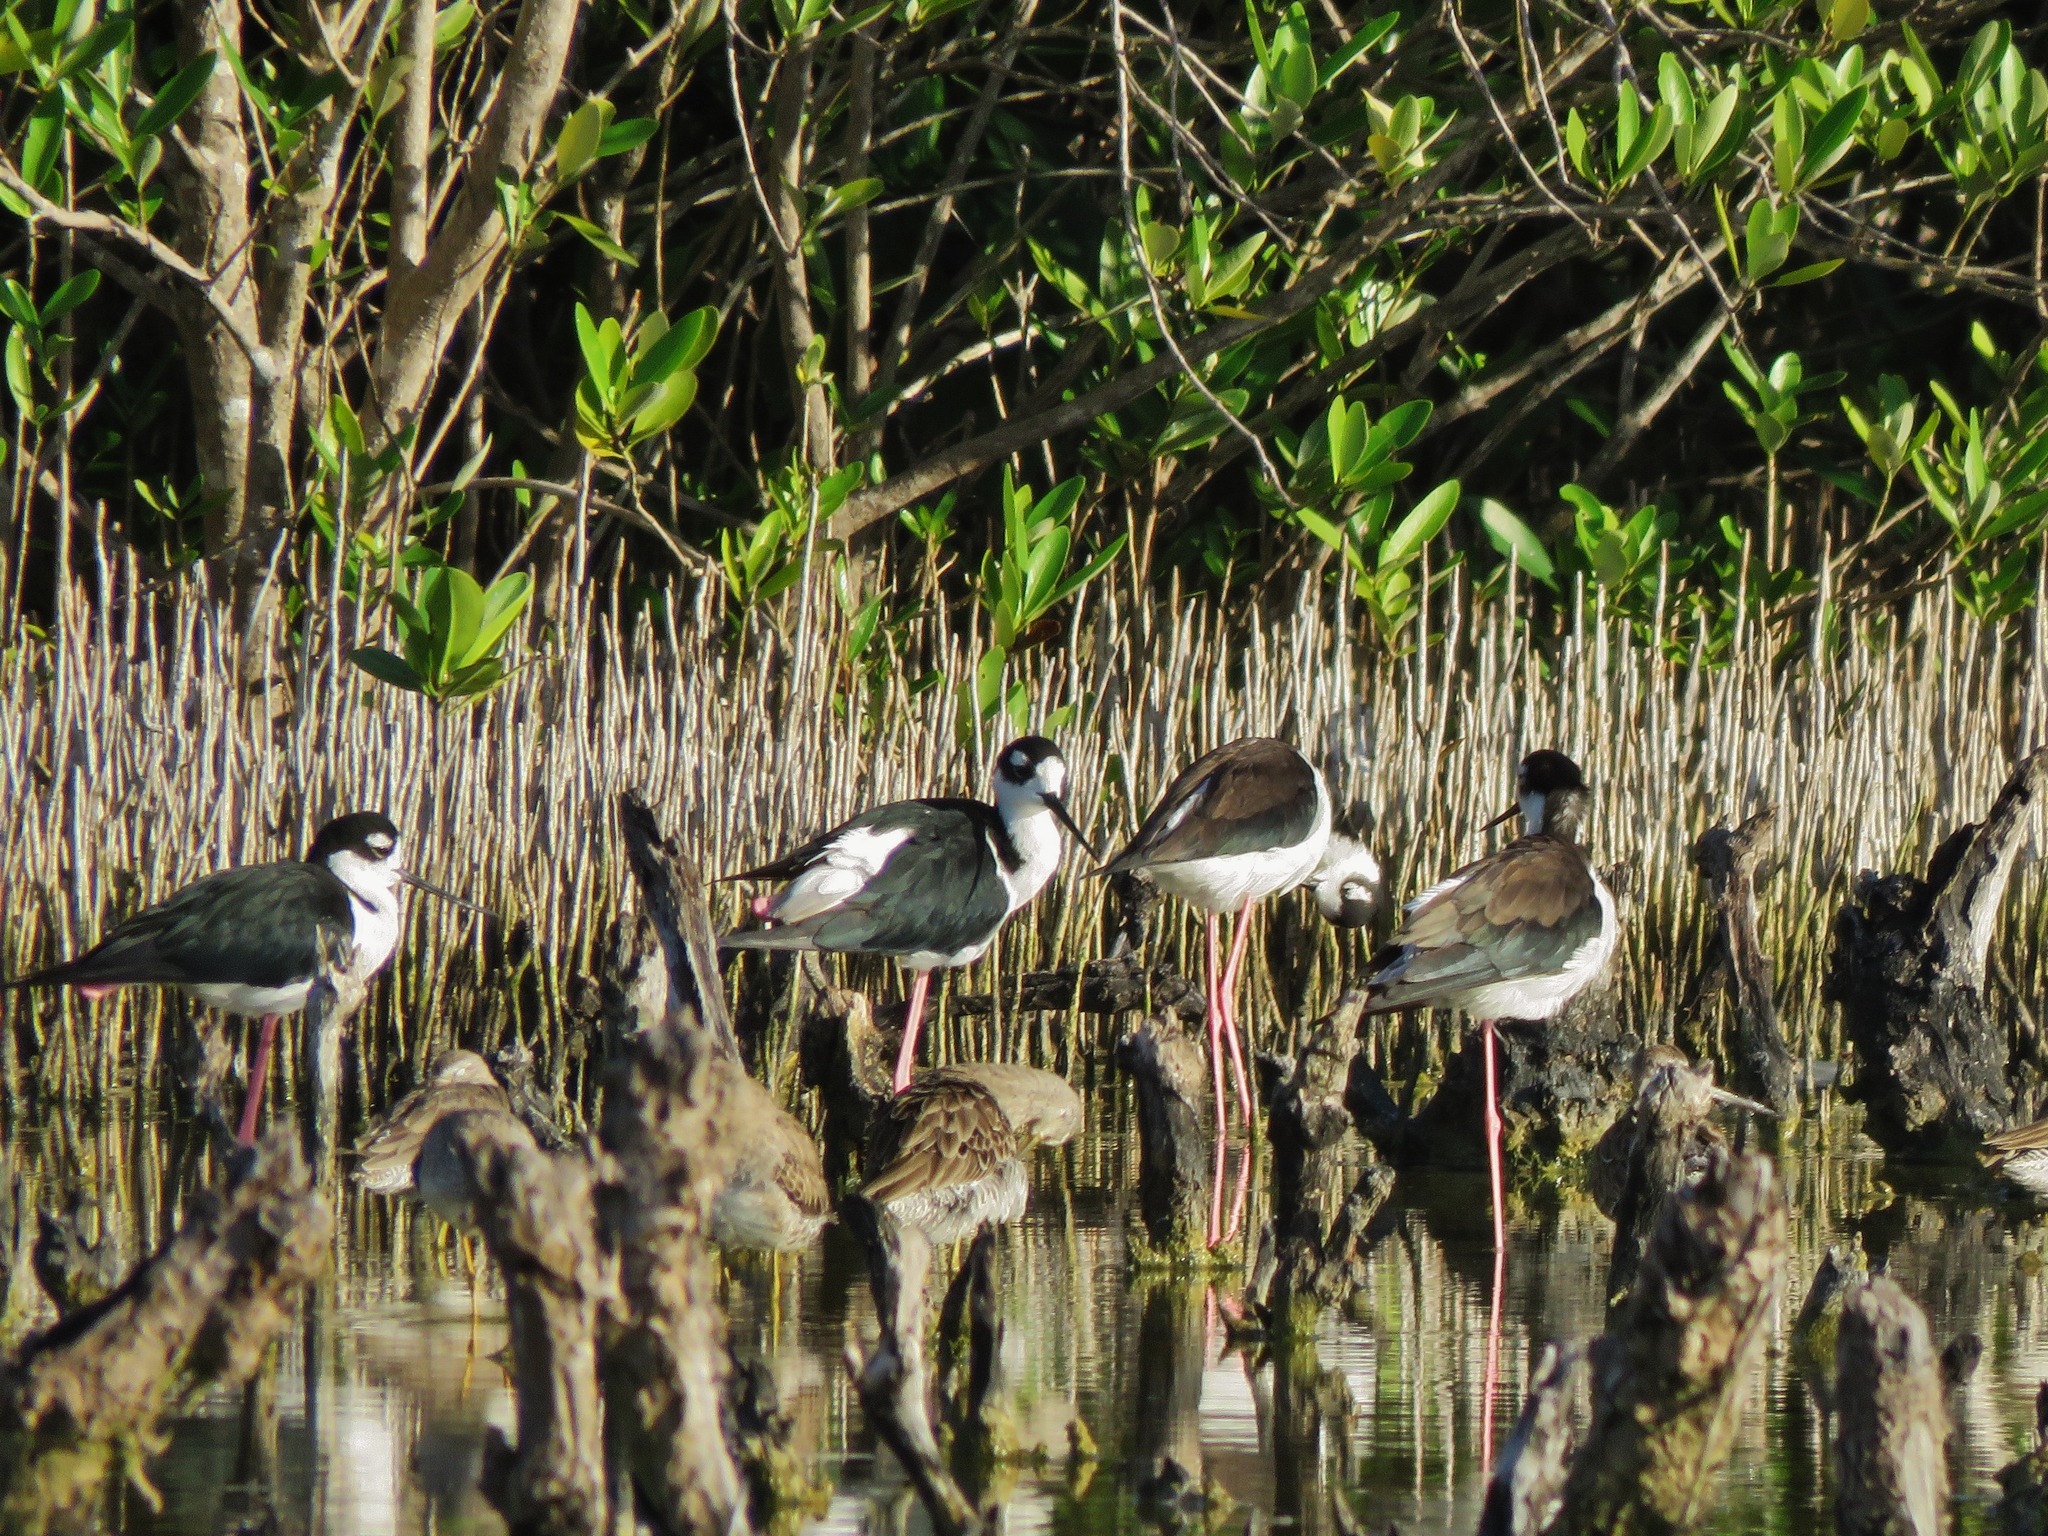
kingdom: Animalia
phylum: Chordata
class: Aves
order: Charadriiformes
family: Recurvirostridae
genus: Himantopus
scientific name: Himantopus mexicanus
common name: Black-necked stilt
